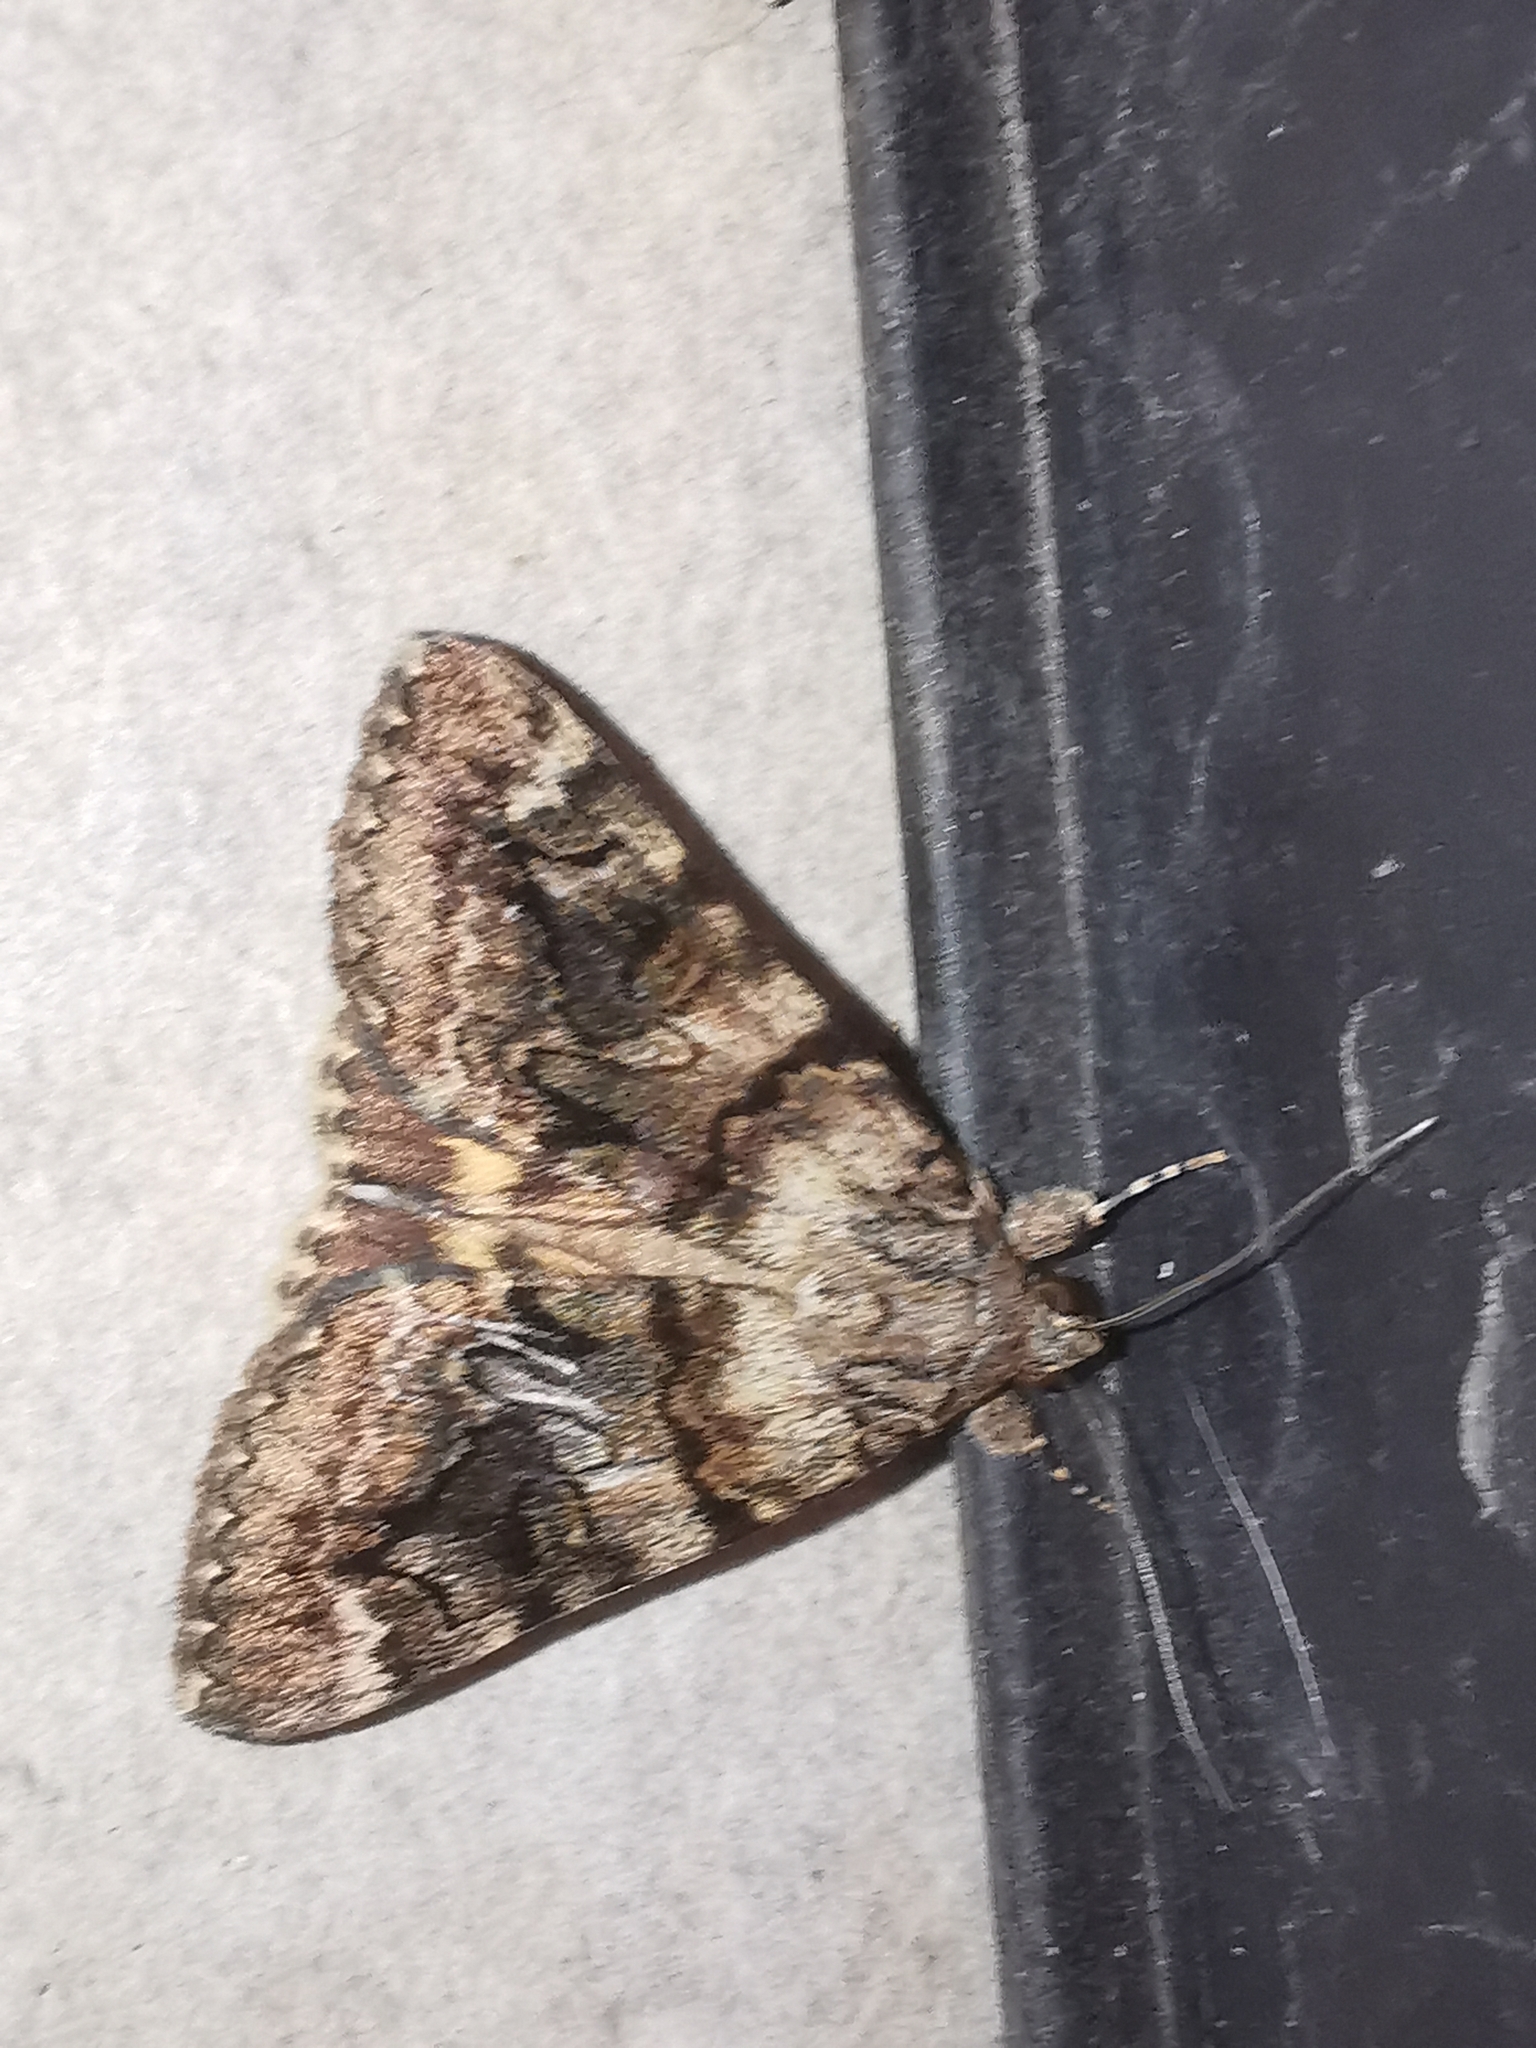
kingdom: Animalia
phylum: Arthropoda
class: Insecta
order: Lepidoptera
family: Erebidae
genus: Catocala
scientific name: Catocala nymphagoga
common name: Oak yellow underwing
